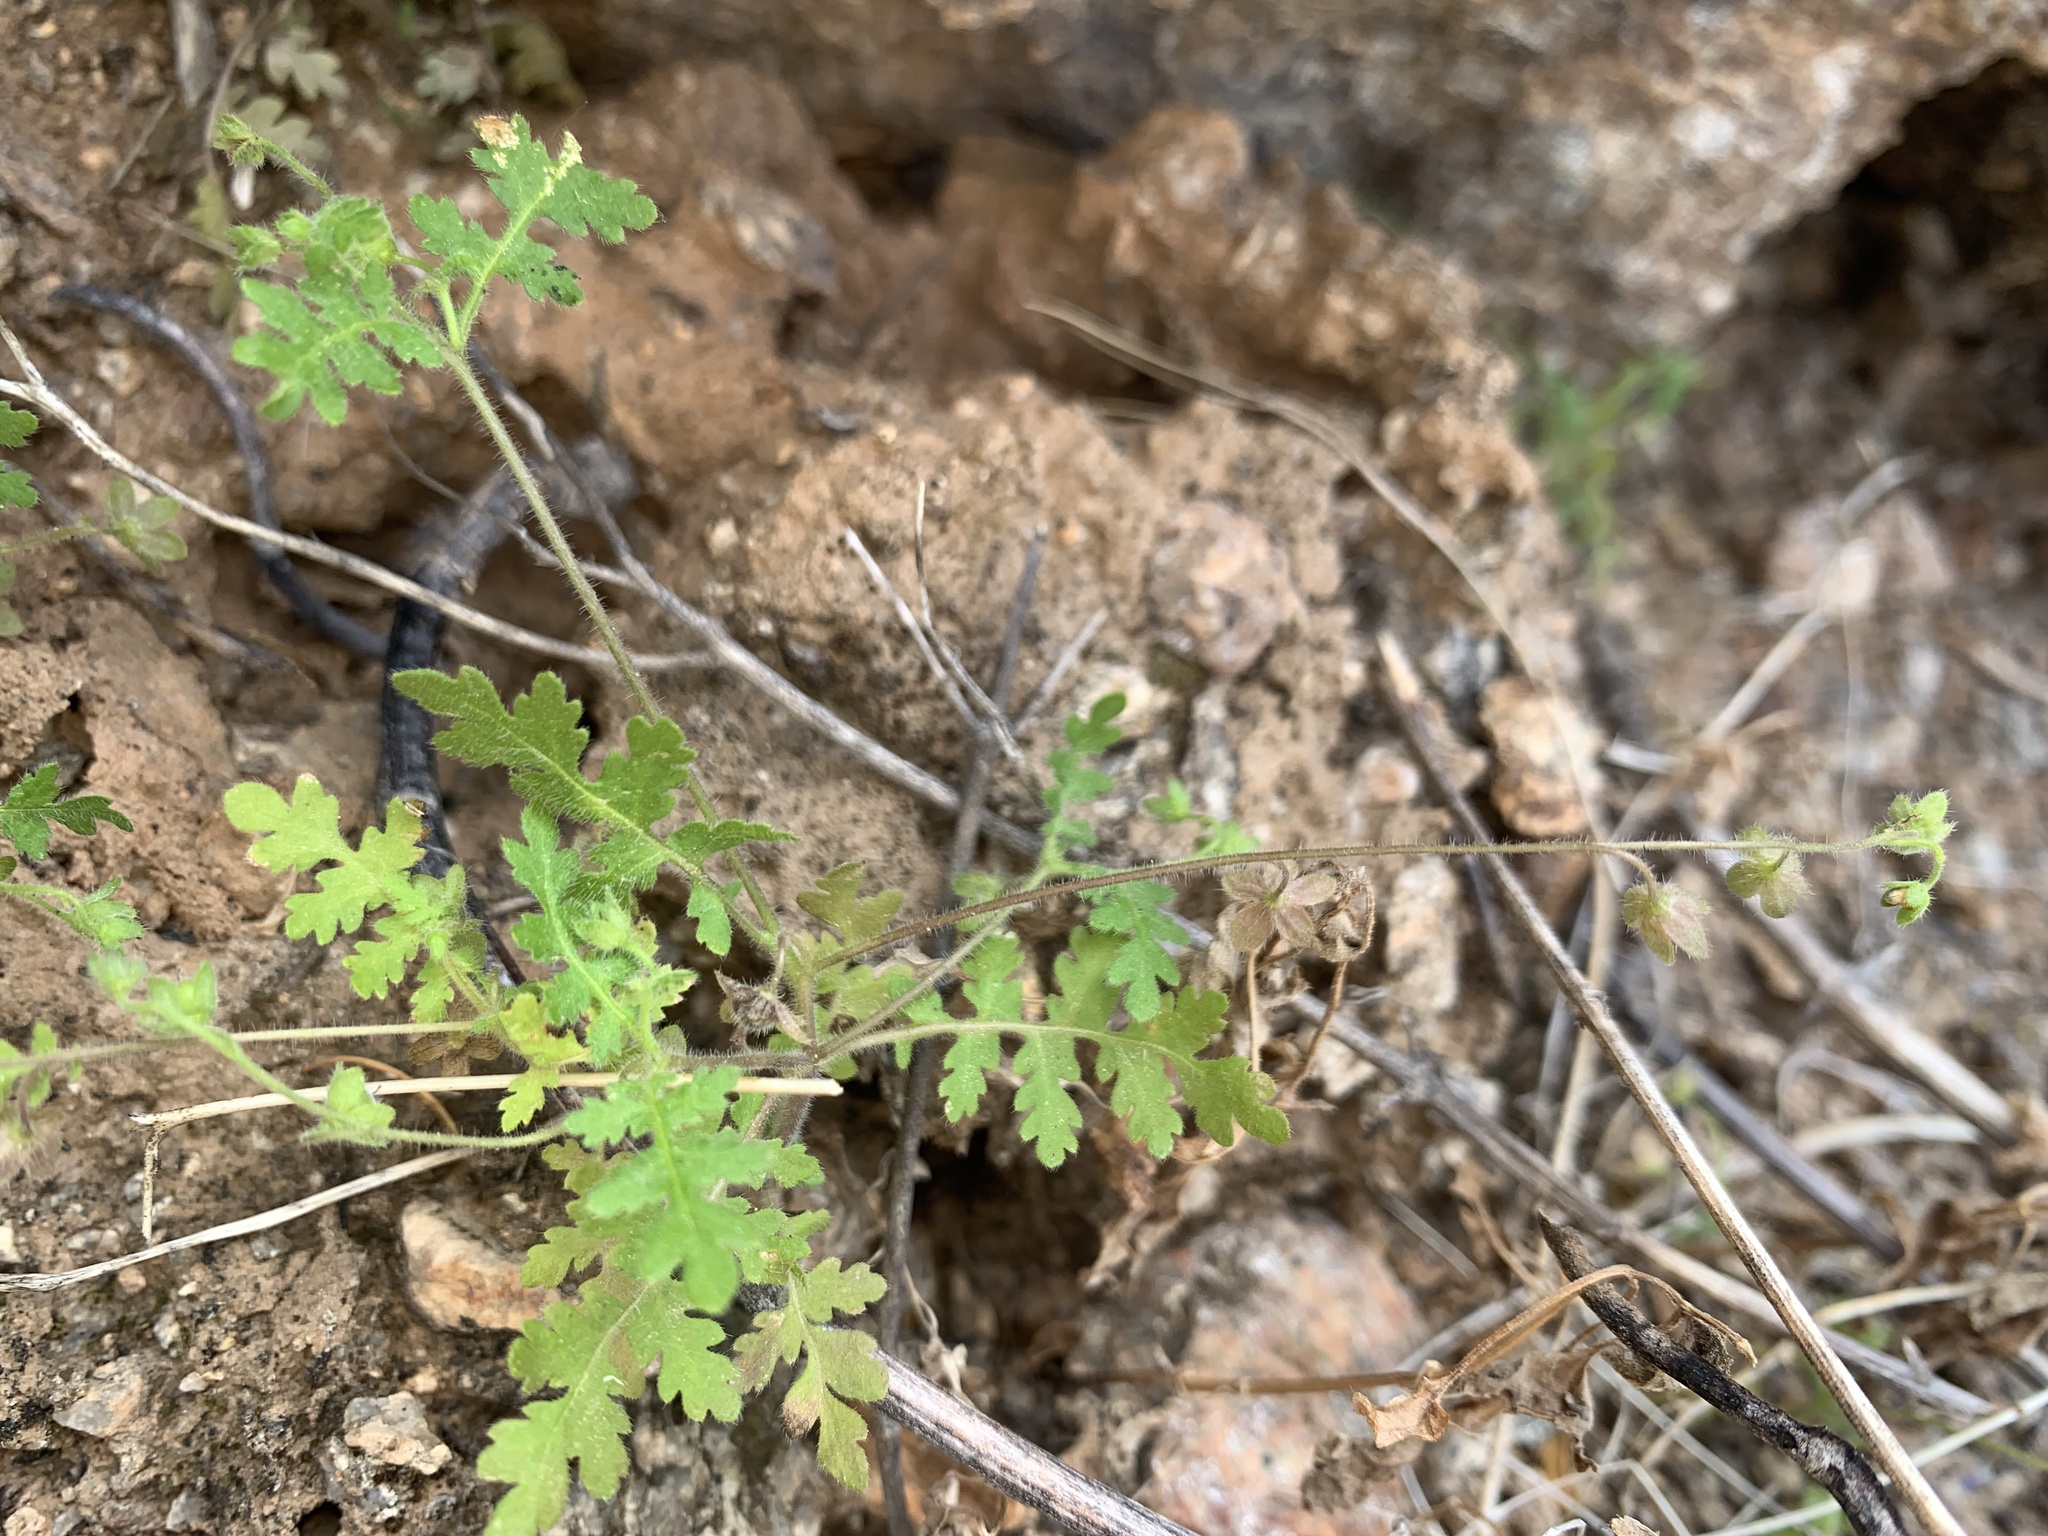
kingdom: Plantae
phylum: Tracheophyta
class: Magnoliopsida
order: Boraginales
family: Hydrophyllaceae
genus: Eucrypta
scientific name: Eucrypta chrysanthemifolia
